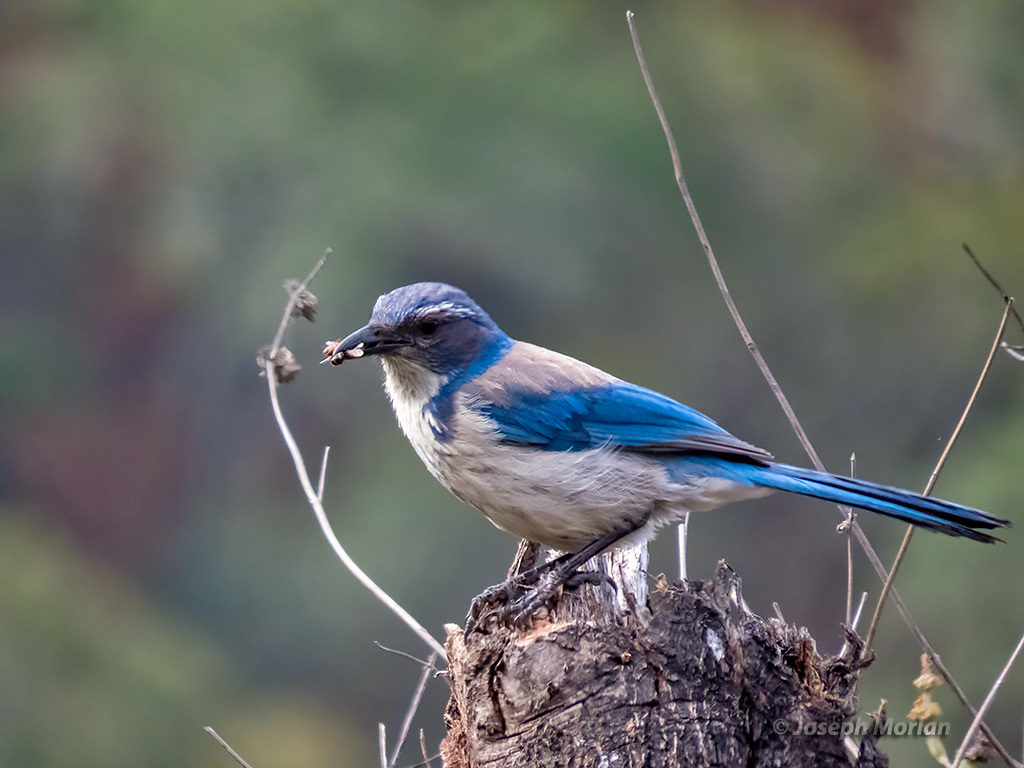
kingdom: Animalia
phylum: Chordata
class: Aves
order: Passeriformes
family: Corvidae
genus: Aphelocoma
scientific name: Aphelocoma californica
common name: California scrub-jay
